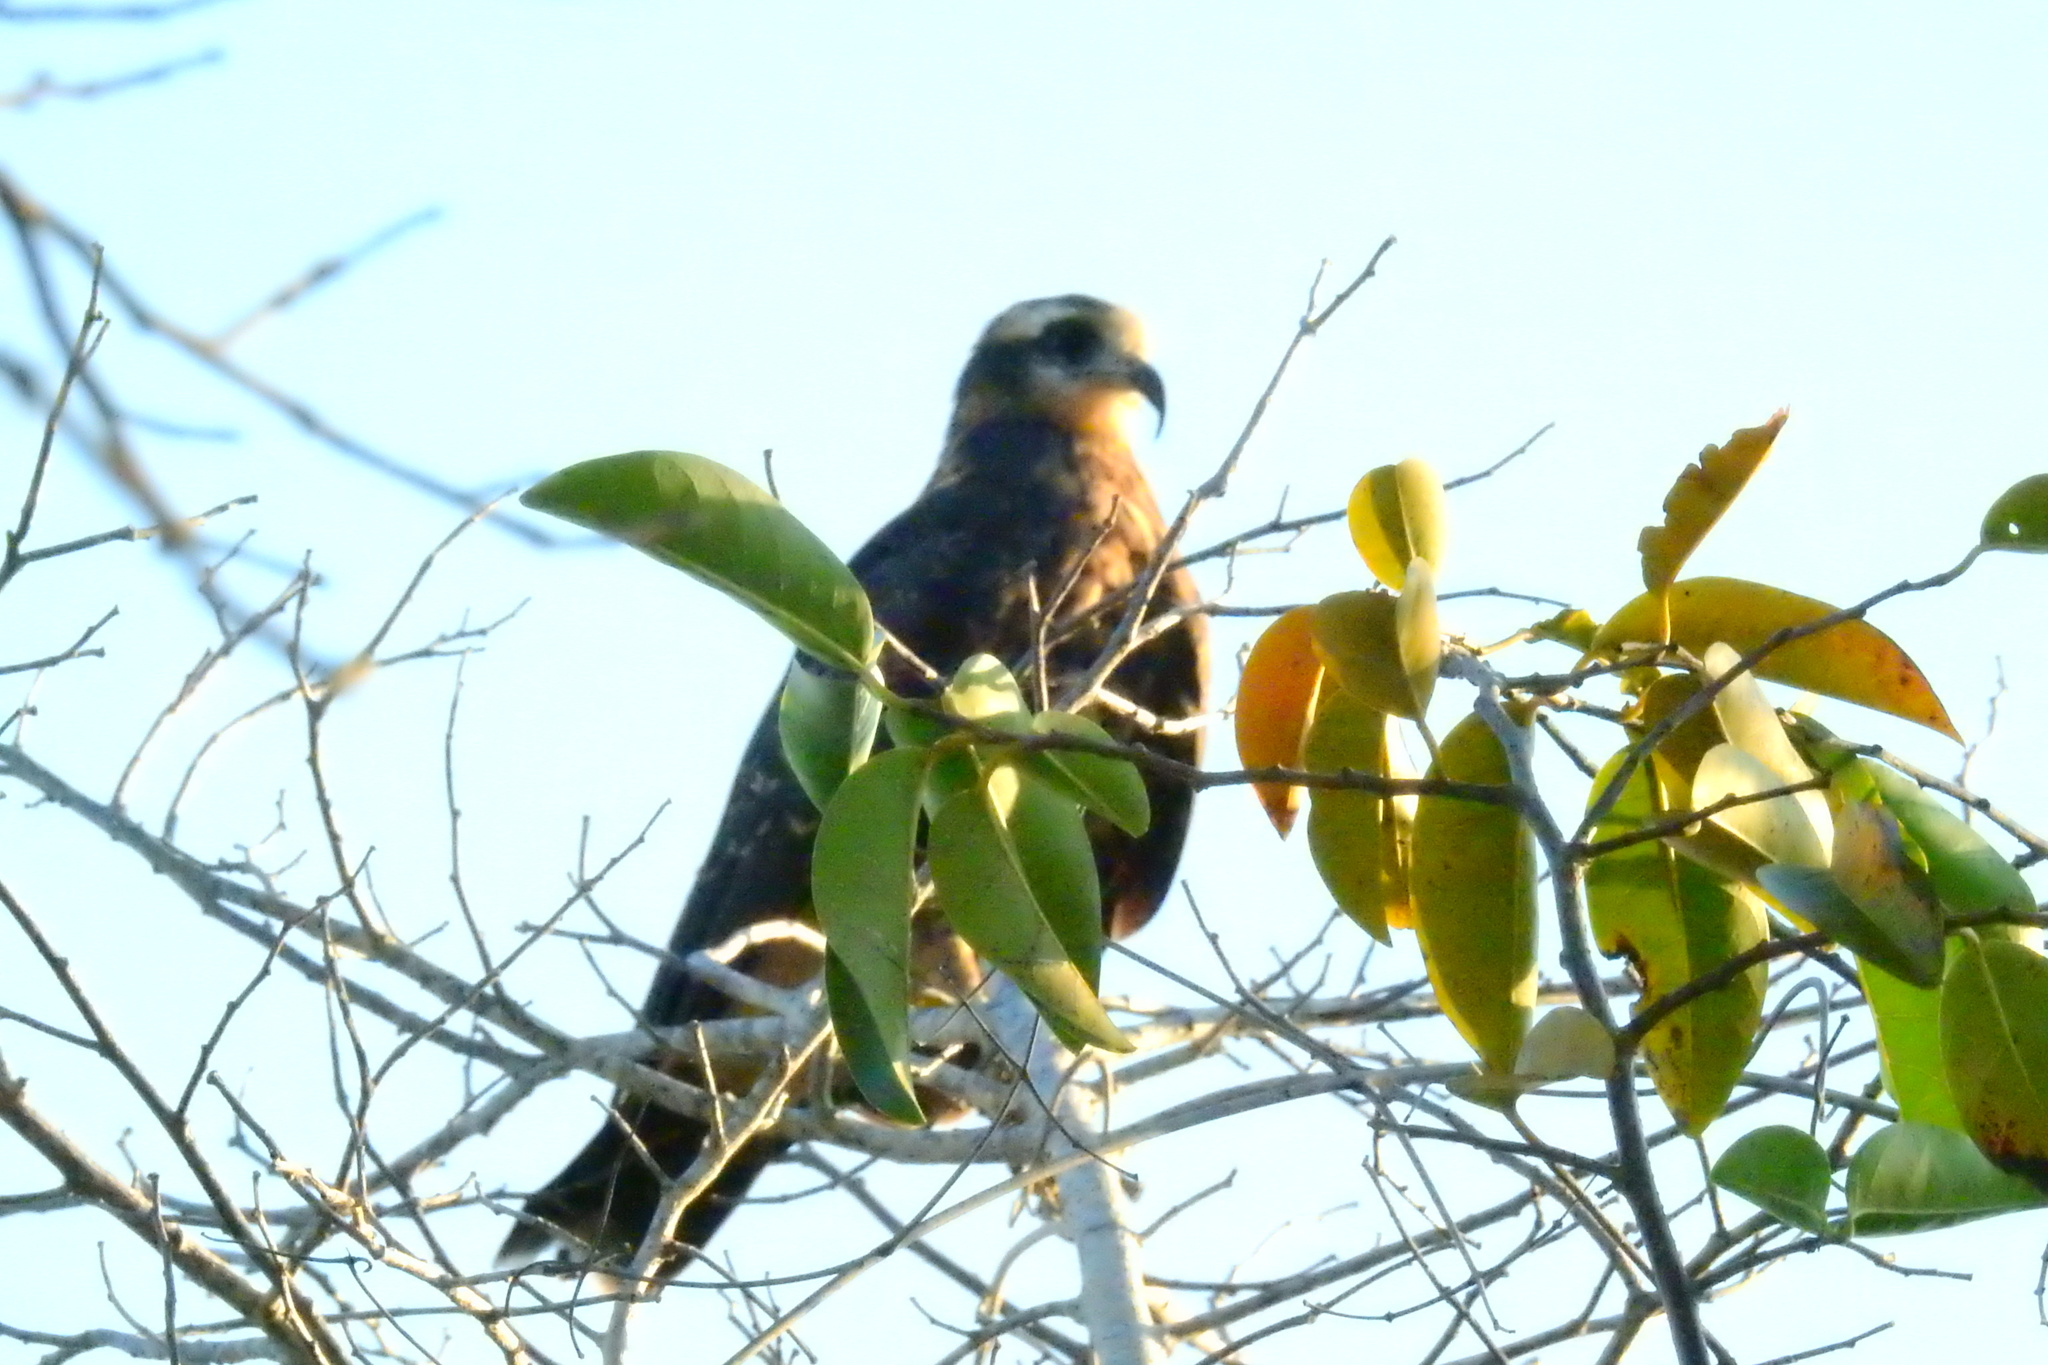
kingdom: Animalia
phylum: Chordata
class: Aves
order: Accipitriformes
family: Accipitridae
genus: Rostrhamus
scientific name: Rostrhamus sociabilis
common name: Snail kite
